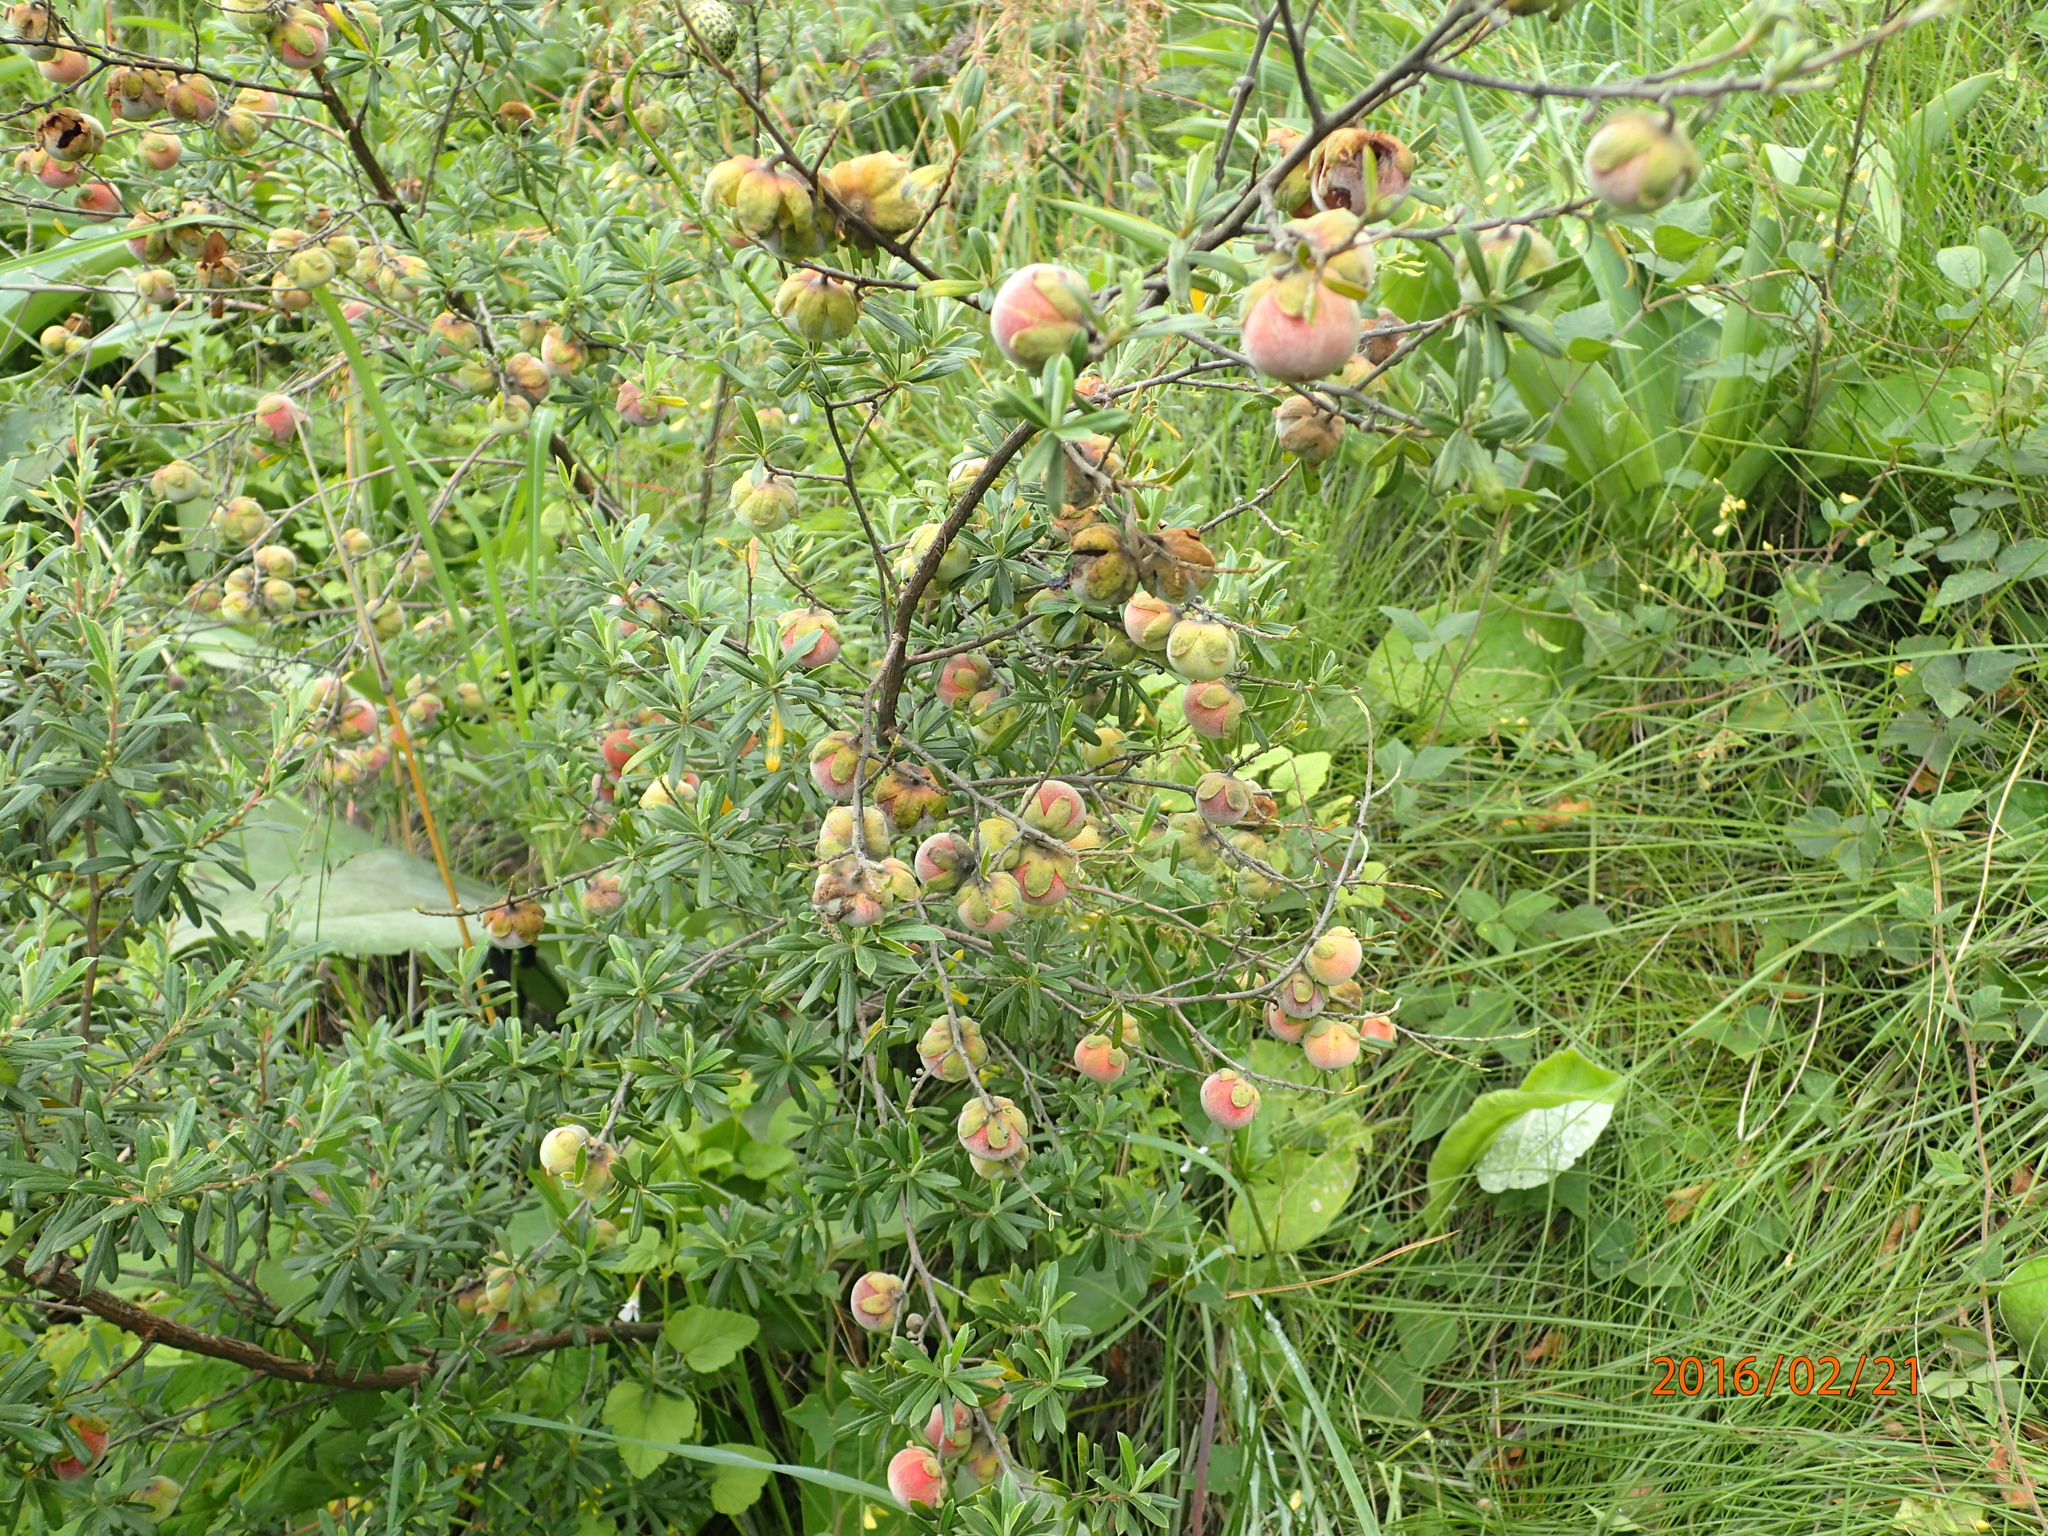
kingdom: Plantae
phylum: Tracheophyta
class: Magnoliopsida
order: Ericales
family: Ebenaceae
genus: Diospyros
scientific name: Diospyros pubescens
